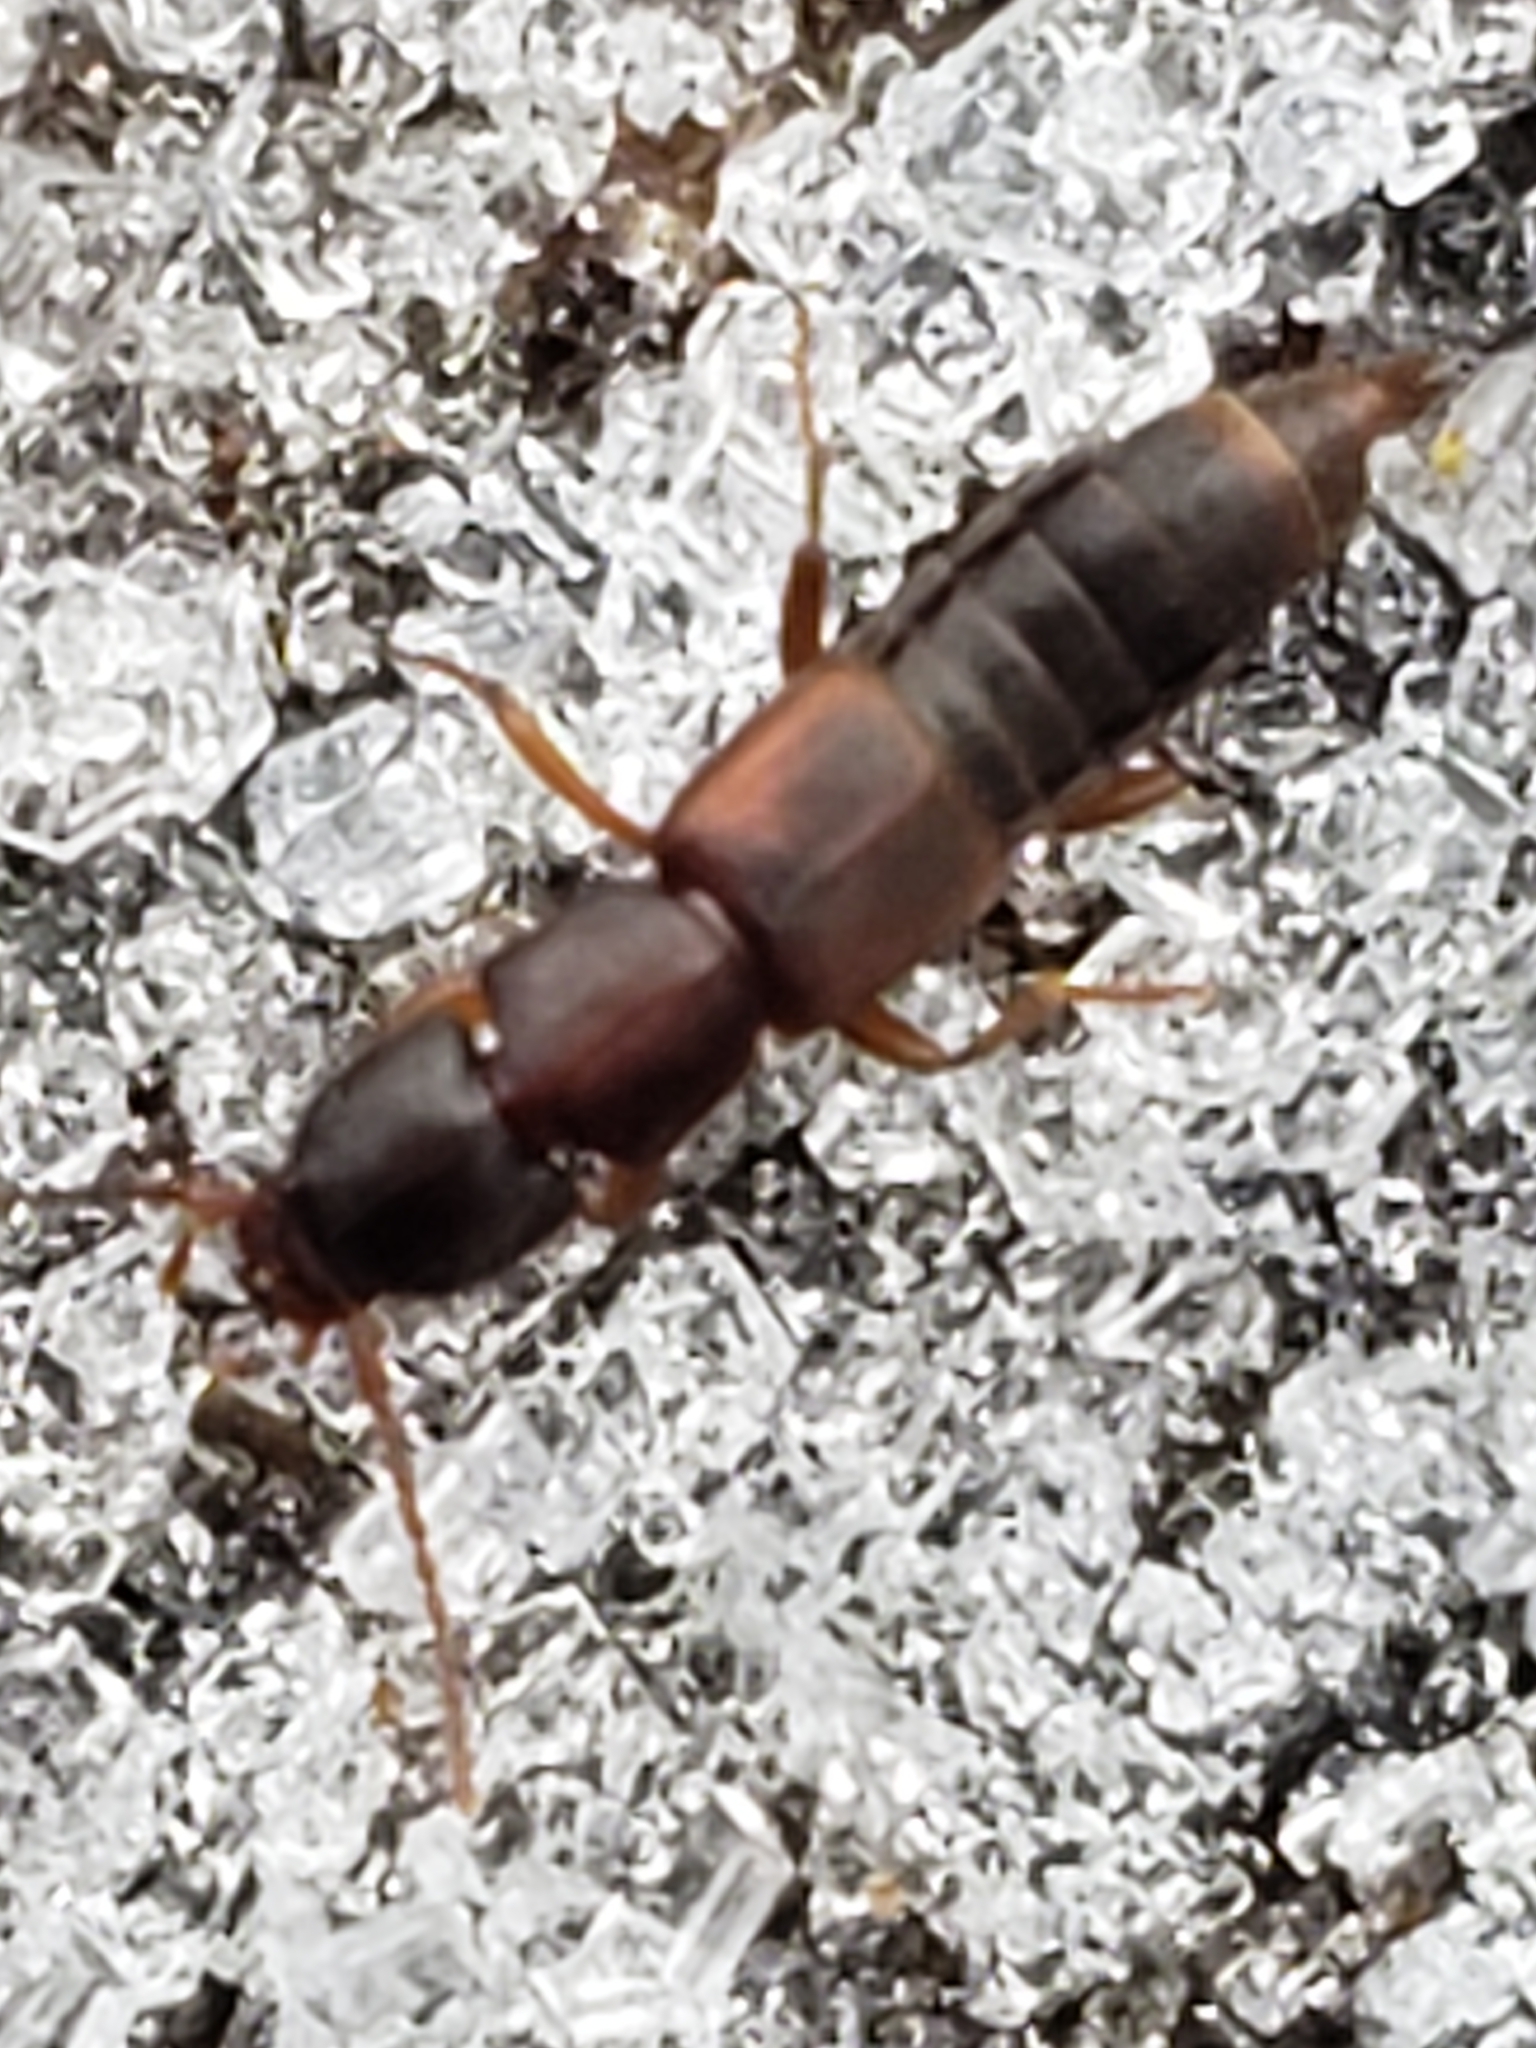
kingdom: Animalia
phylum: Arthropoda
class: Insecta
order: Coleoptera
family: Staphylinidae
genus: Achenomorphus
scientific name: Achenomorphus corticinus
